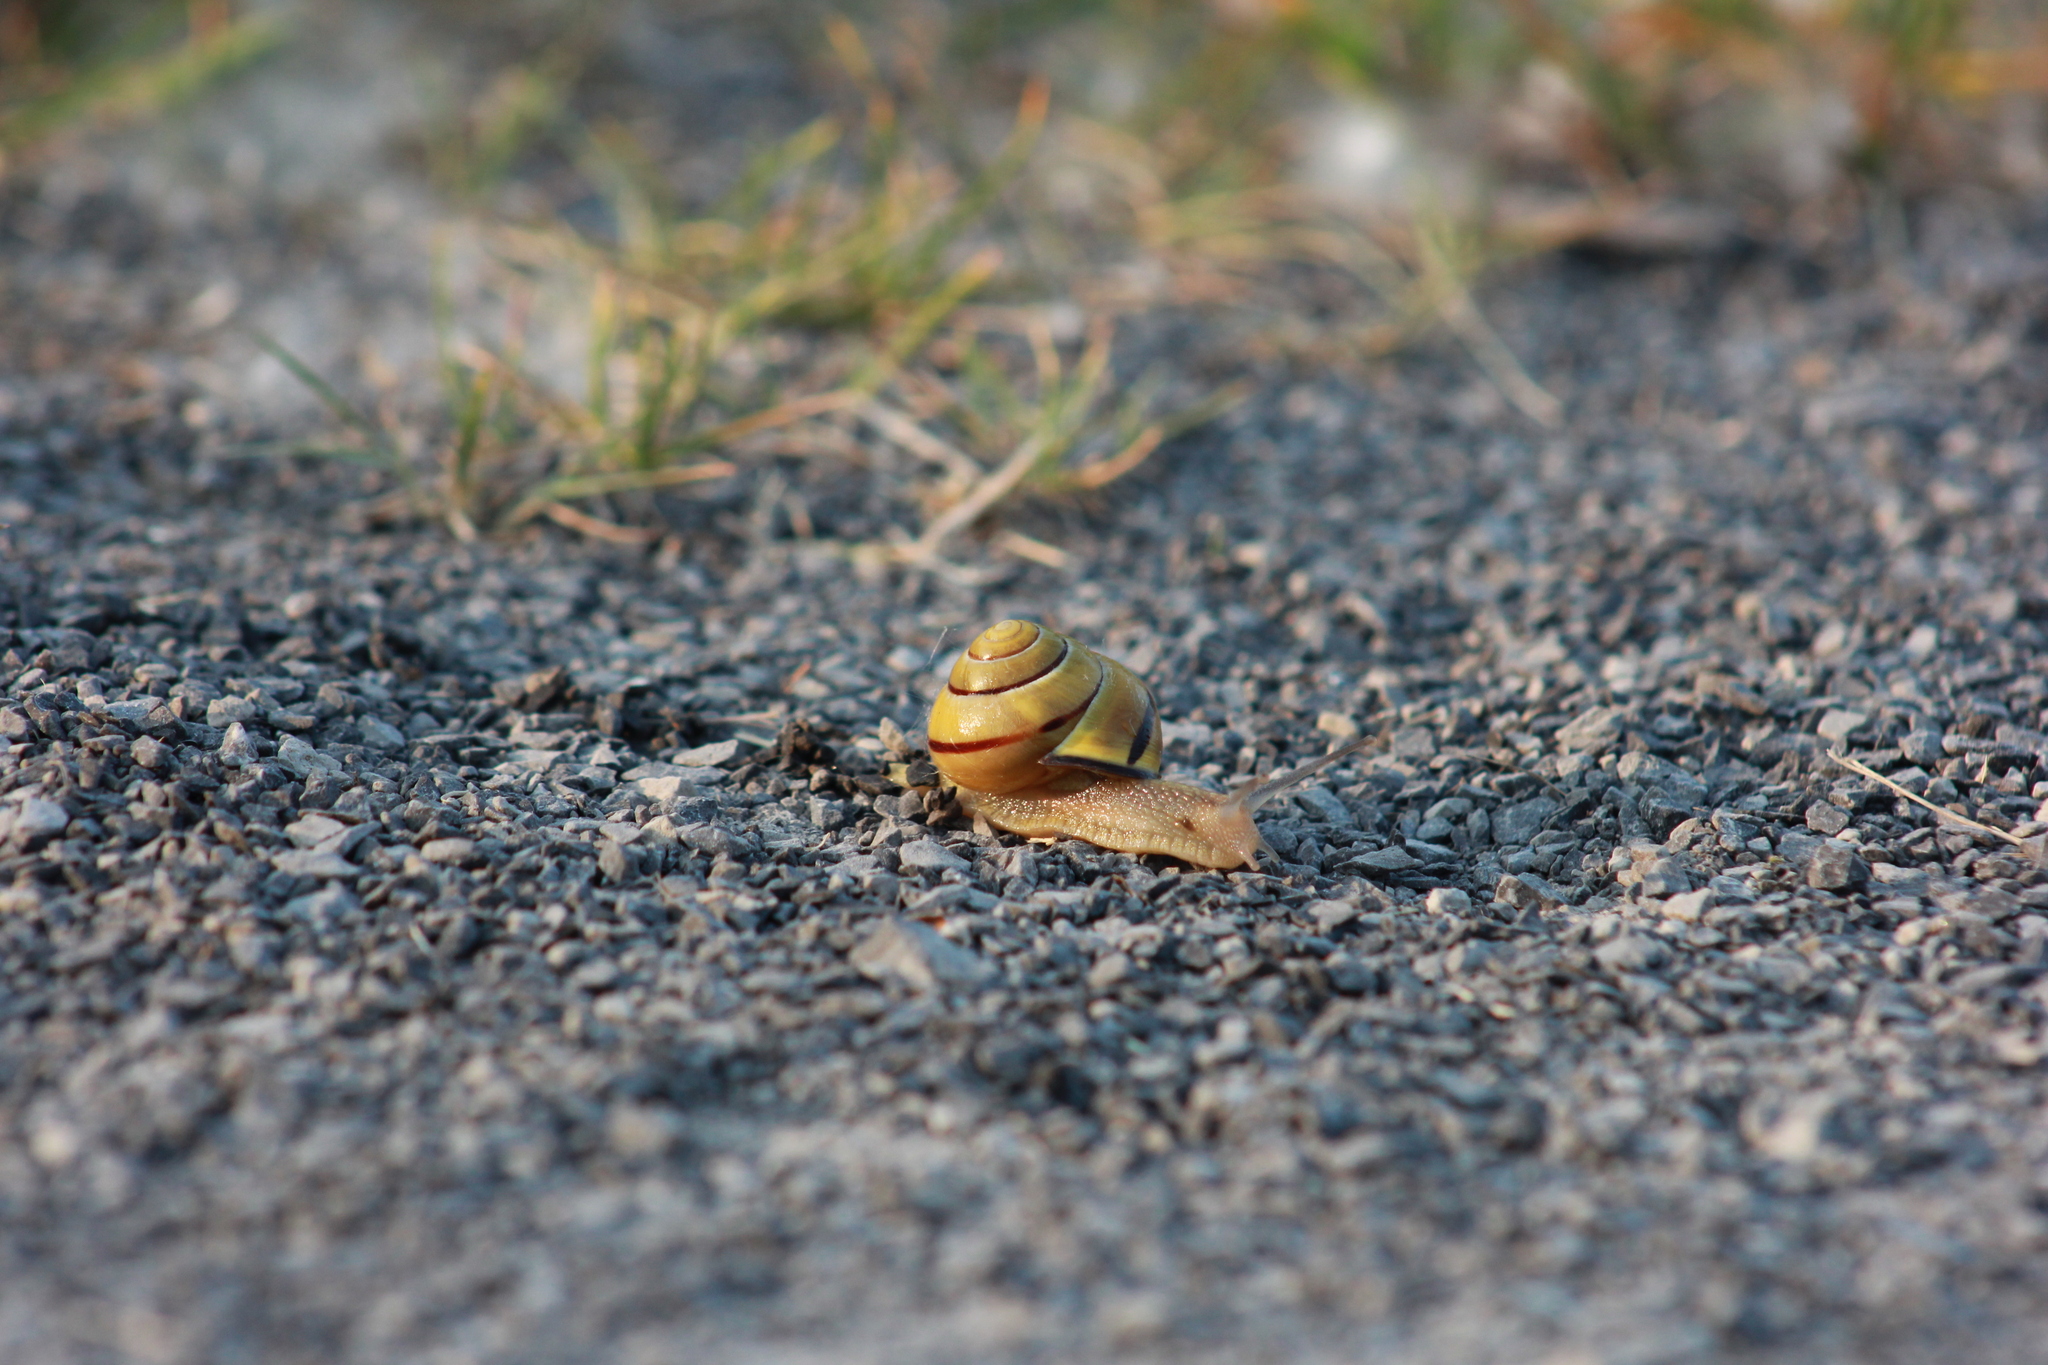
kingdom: Animalia
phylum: Mollusca
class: Gastropoda
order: Stylommatophora
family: Helicidae
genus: Cepaea
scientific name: Cepaea nemoralis
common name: Grovesnail
